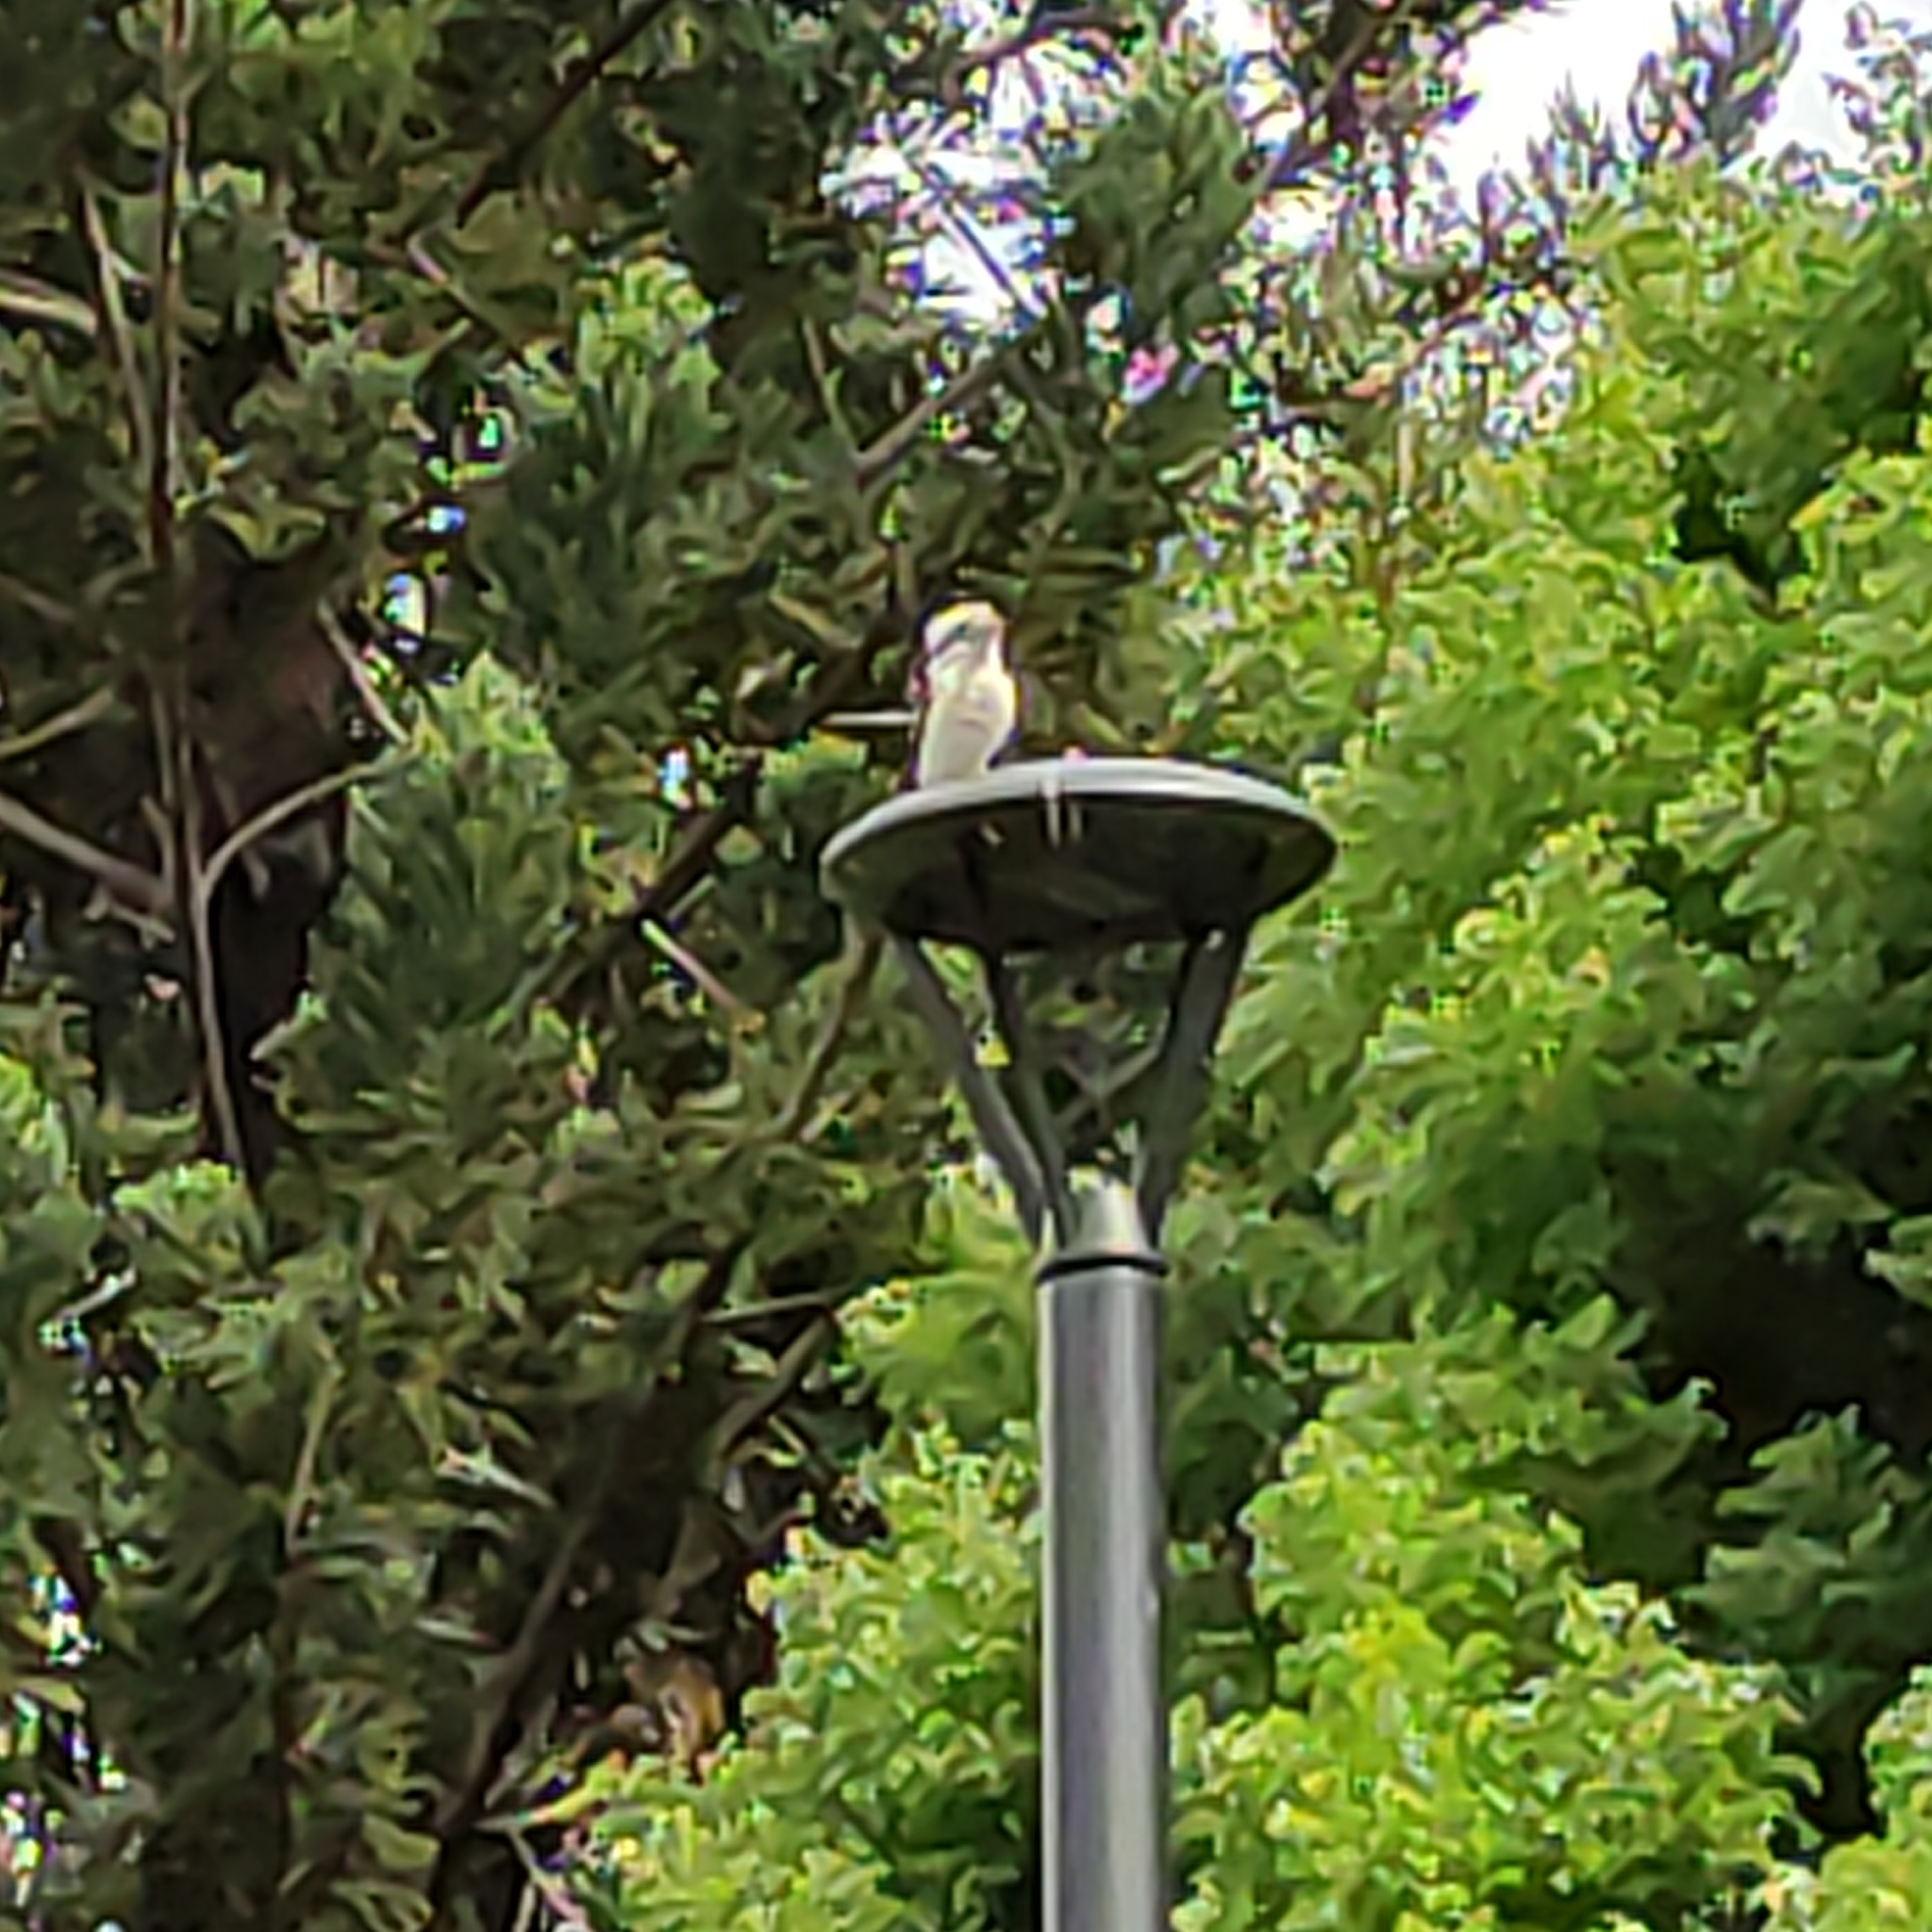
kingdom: Animalia
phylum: Chordata
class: Aves
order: Coraciiformes
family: Alcedinidae
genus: Dacelo
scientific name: Dacelo novaeguineae
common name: Laughing kookaburra
